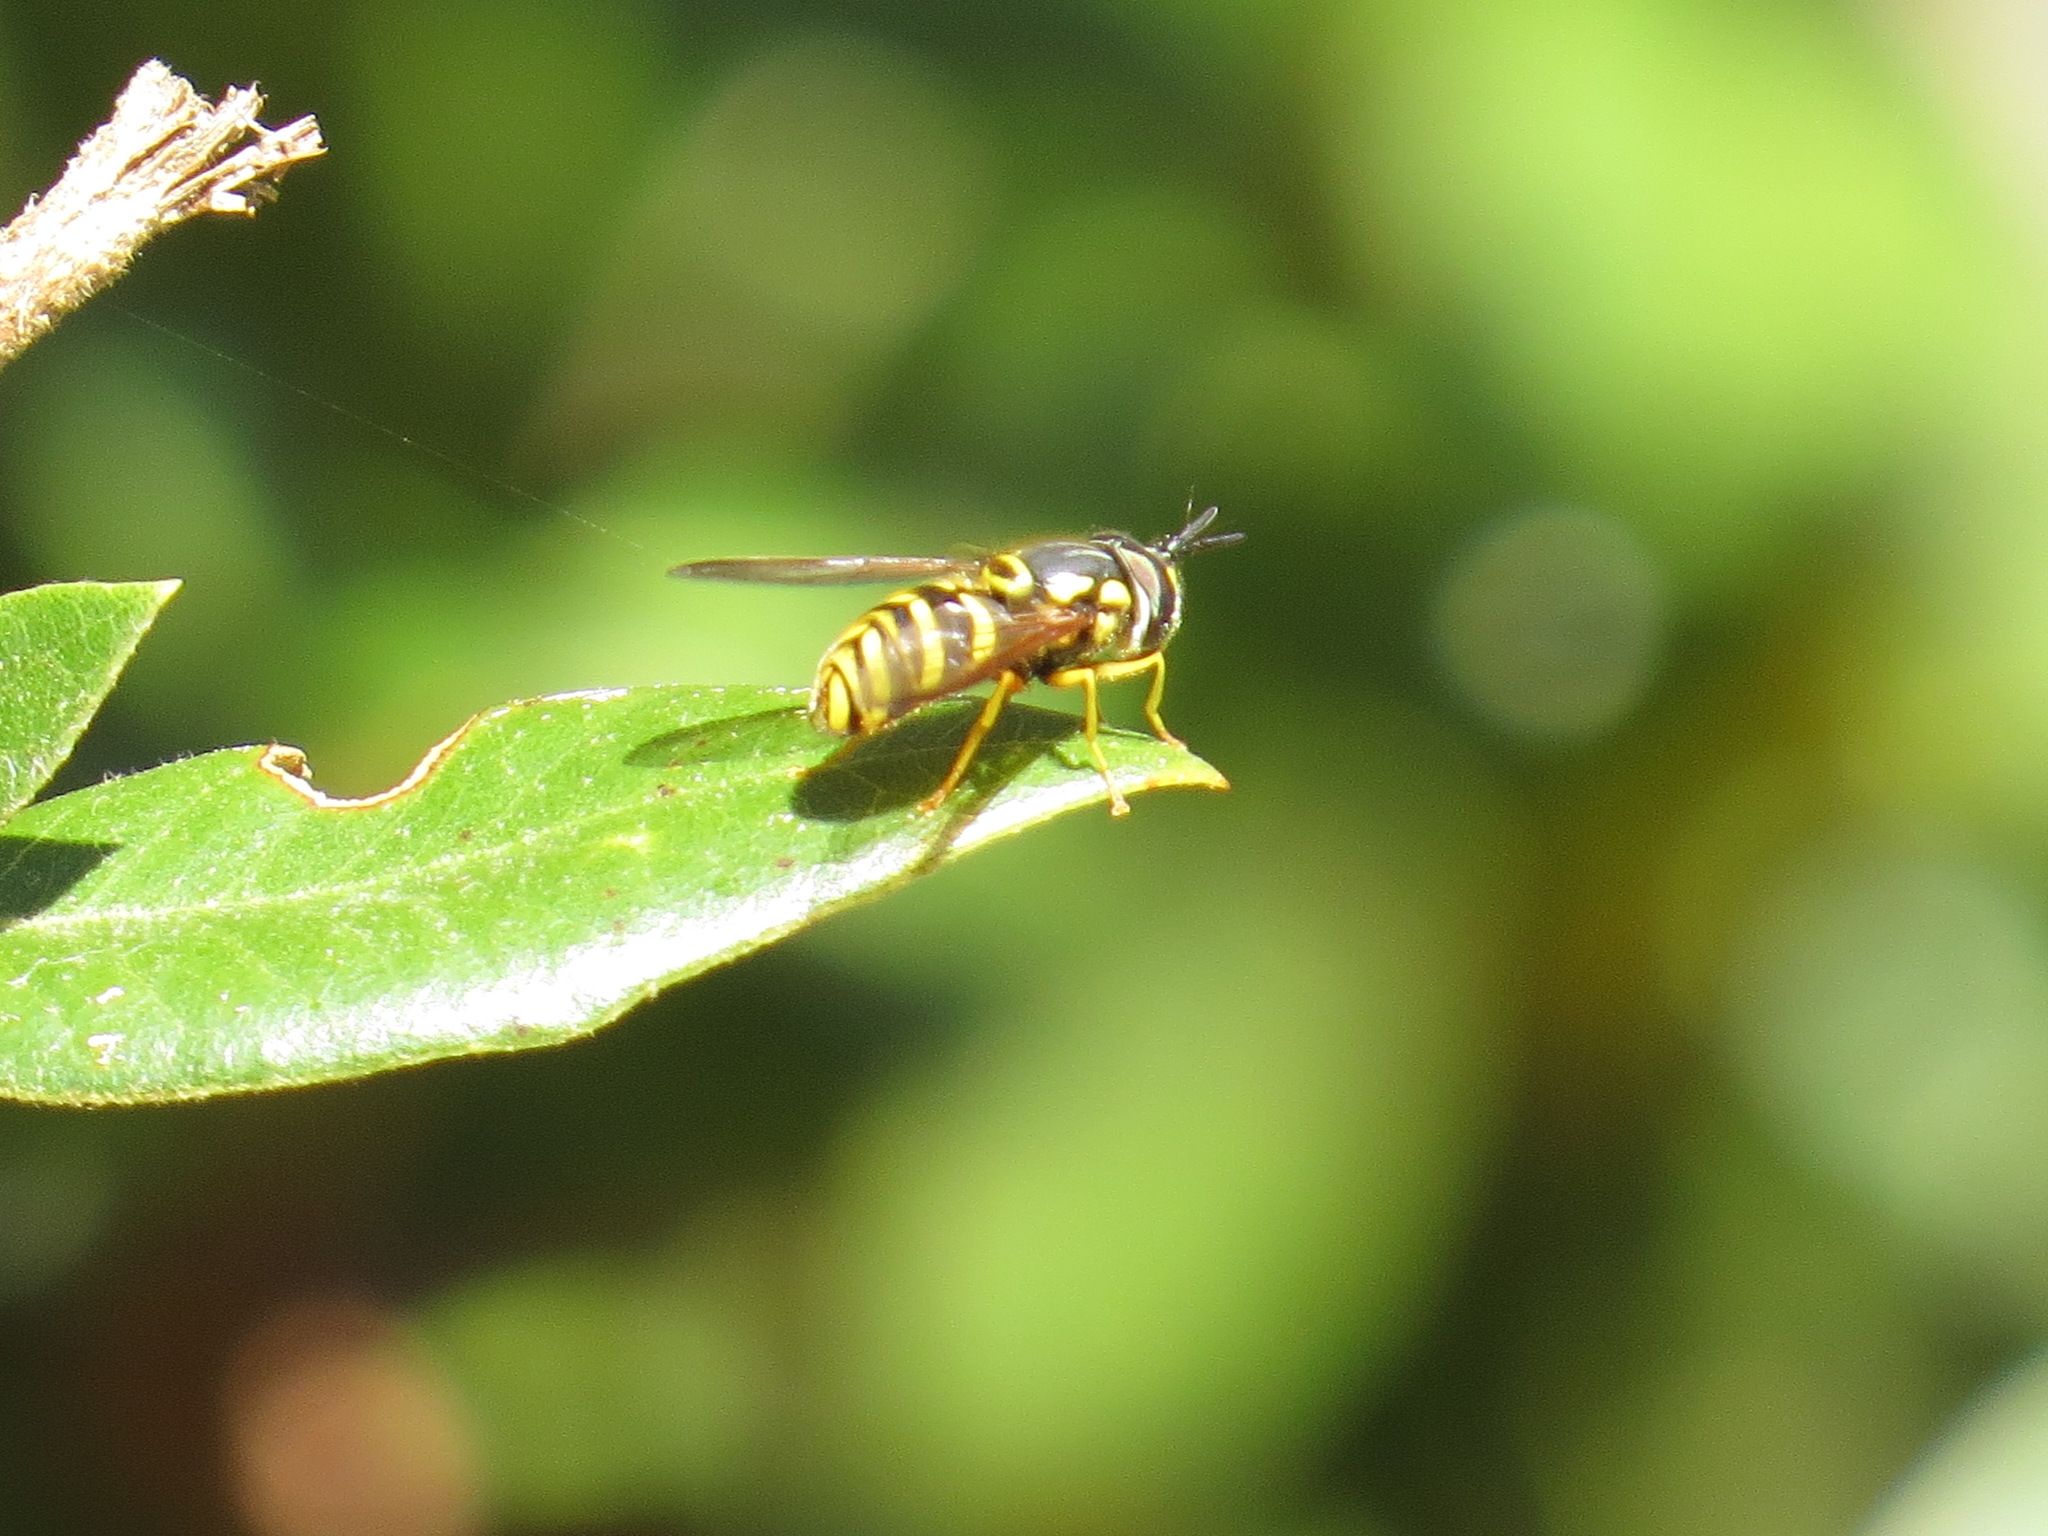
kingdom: Animalia
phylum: Arthropoda
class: Insecta
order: Diptera
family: Syrphidae
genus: Chrysotoxum
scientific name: Chrysotoxum
